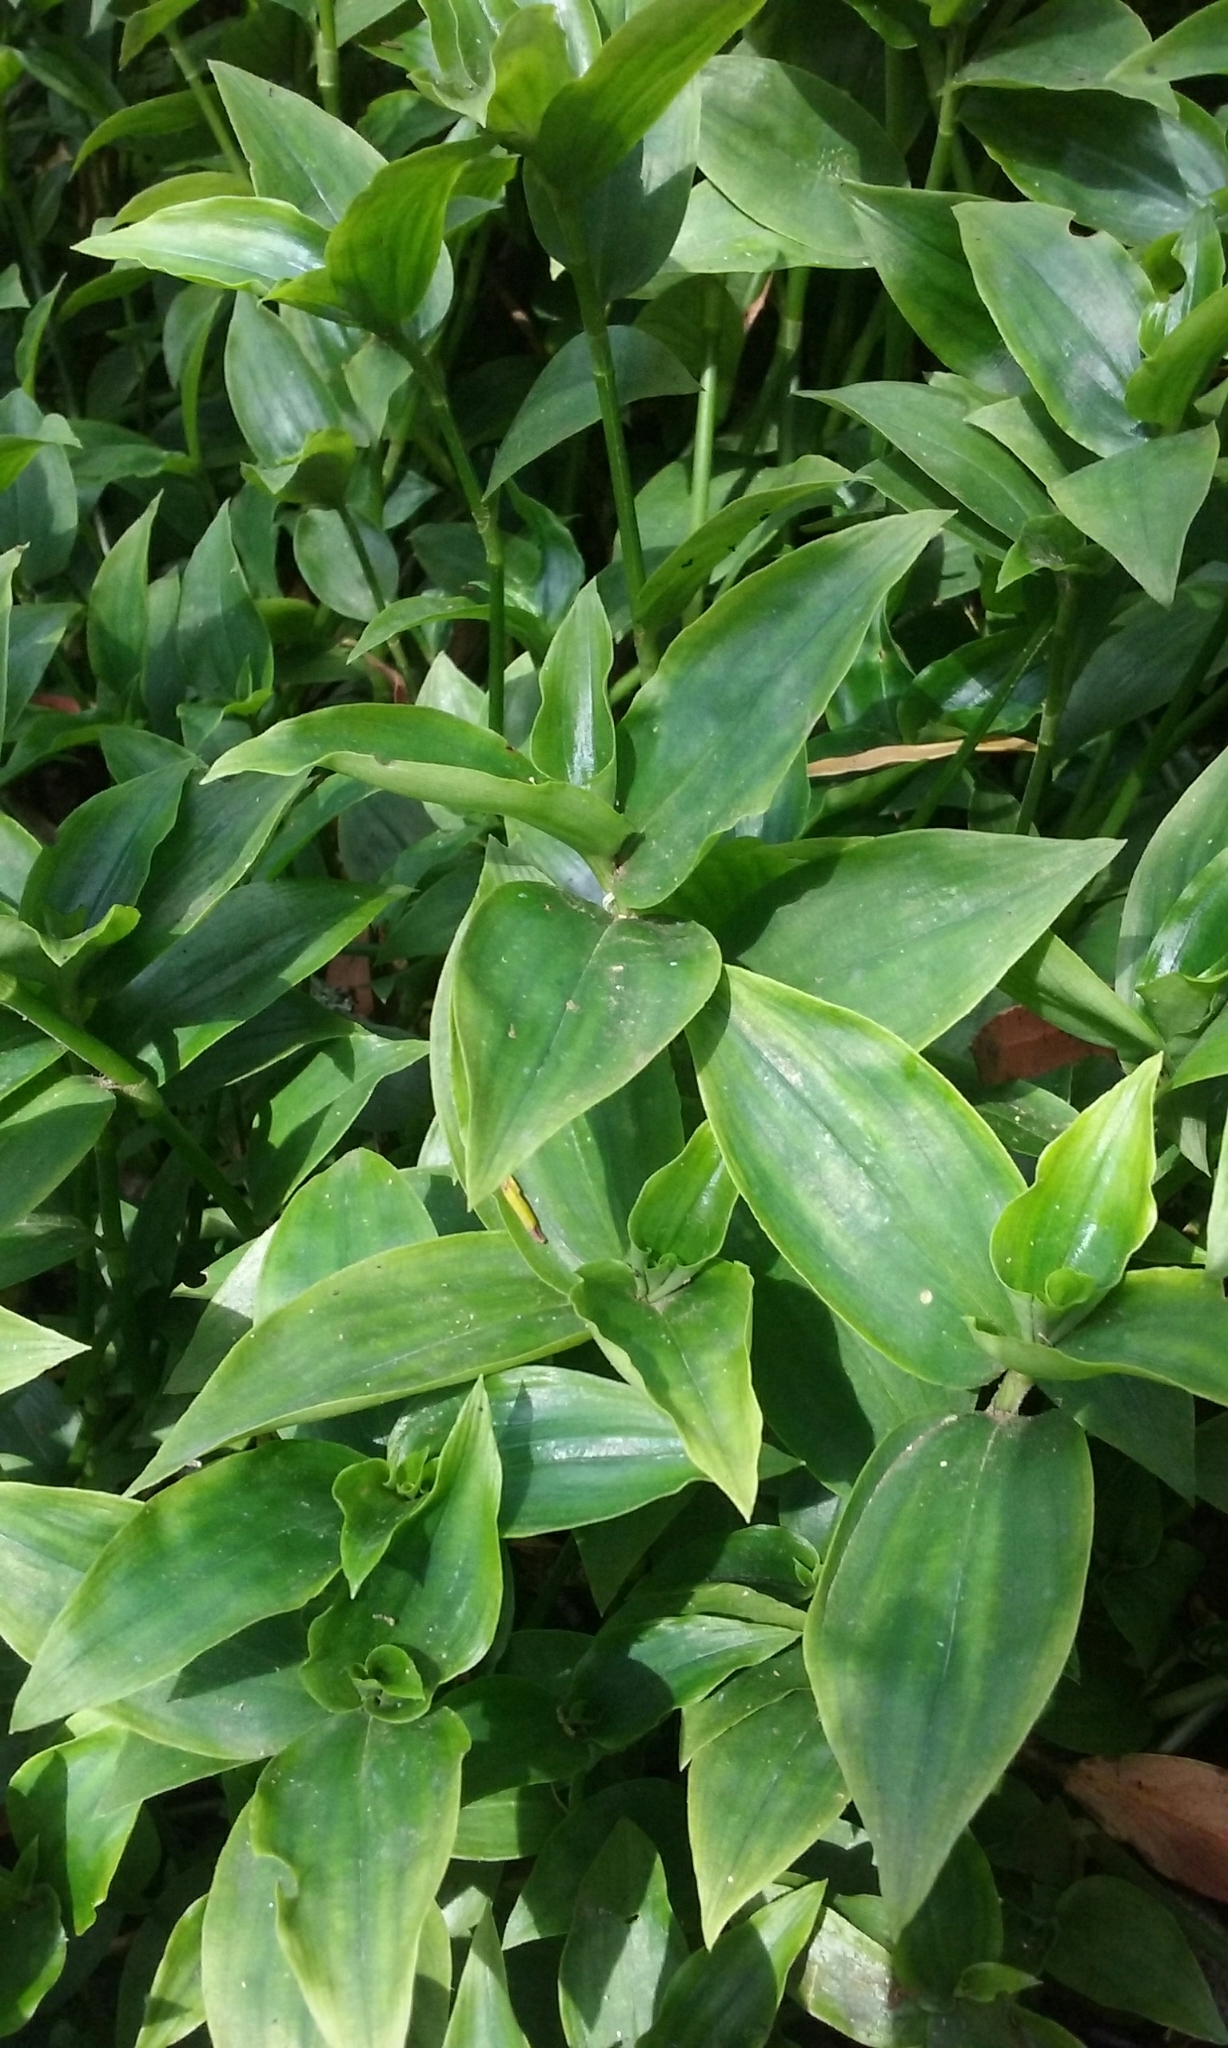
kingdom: Plantae
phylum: Tracheophyta
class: Liliopsida
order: Commelinales
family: Commelinaceae
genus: Tradescantia
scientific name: Tradescantia fluminensis
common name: Wandering-jew
